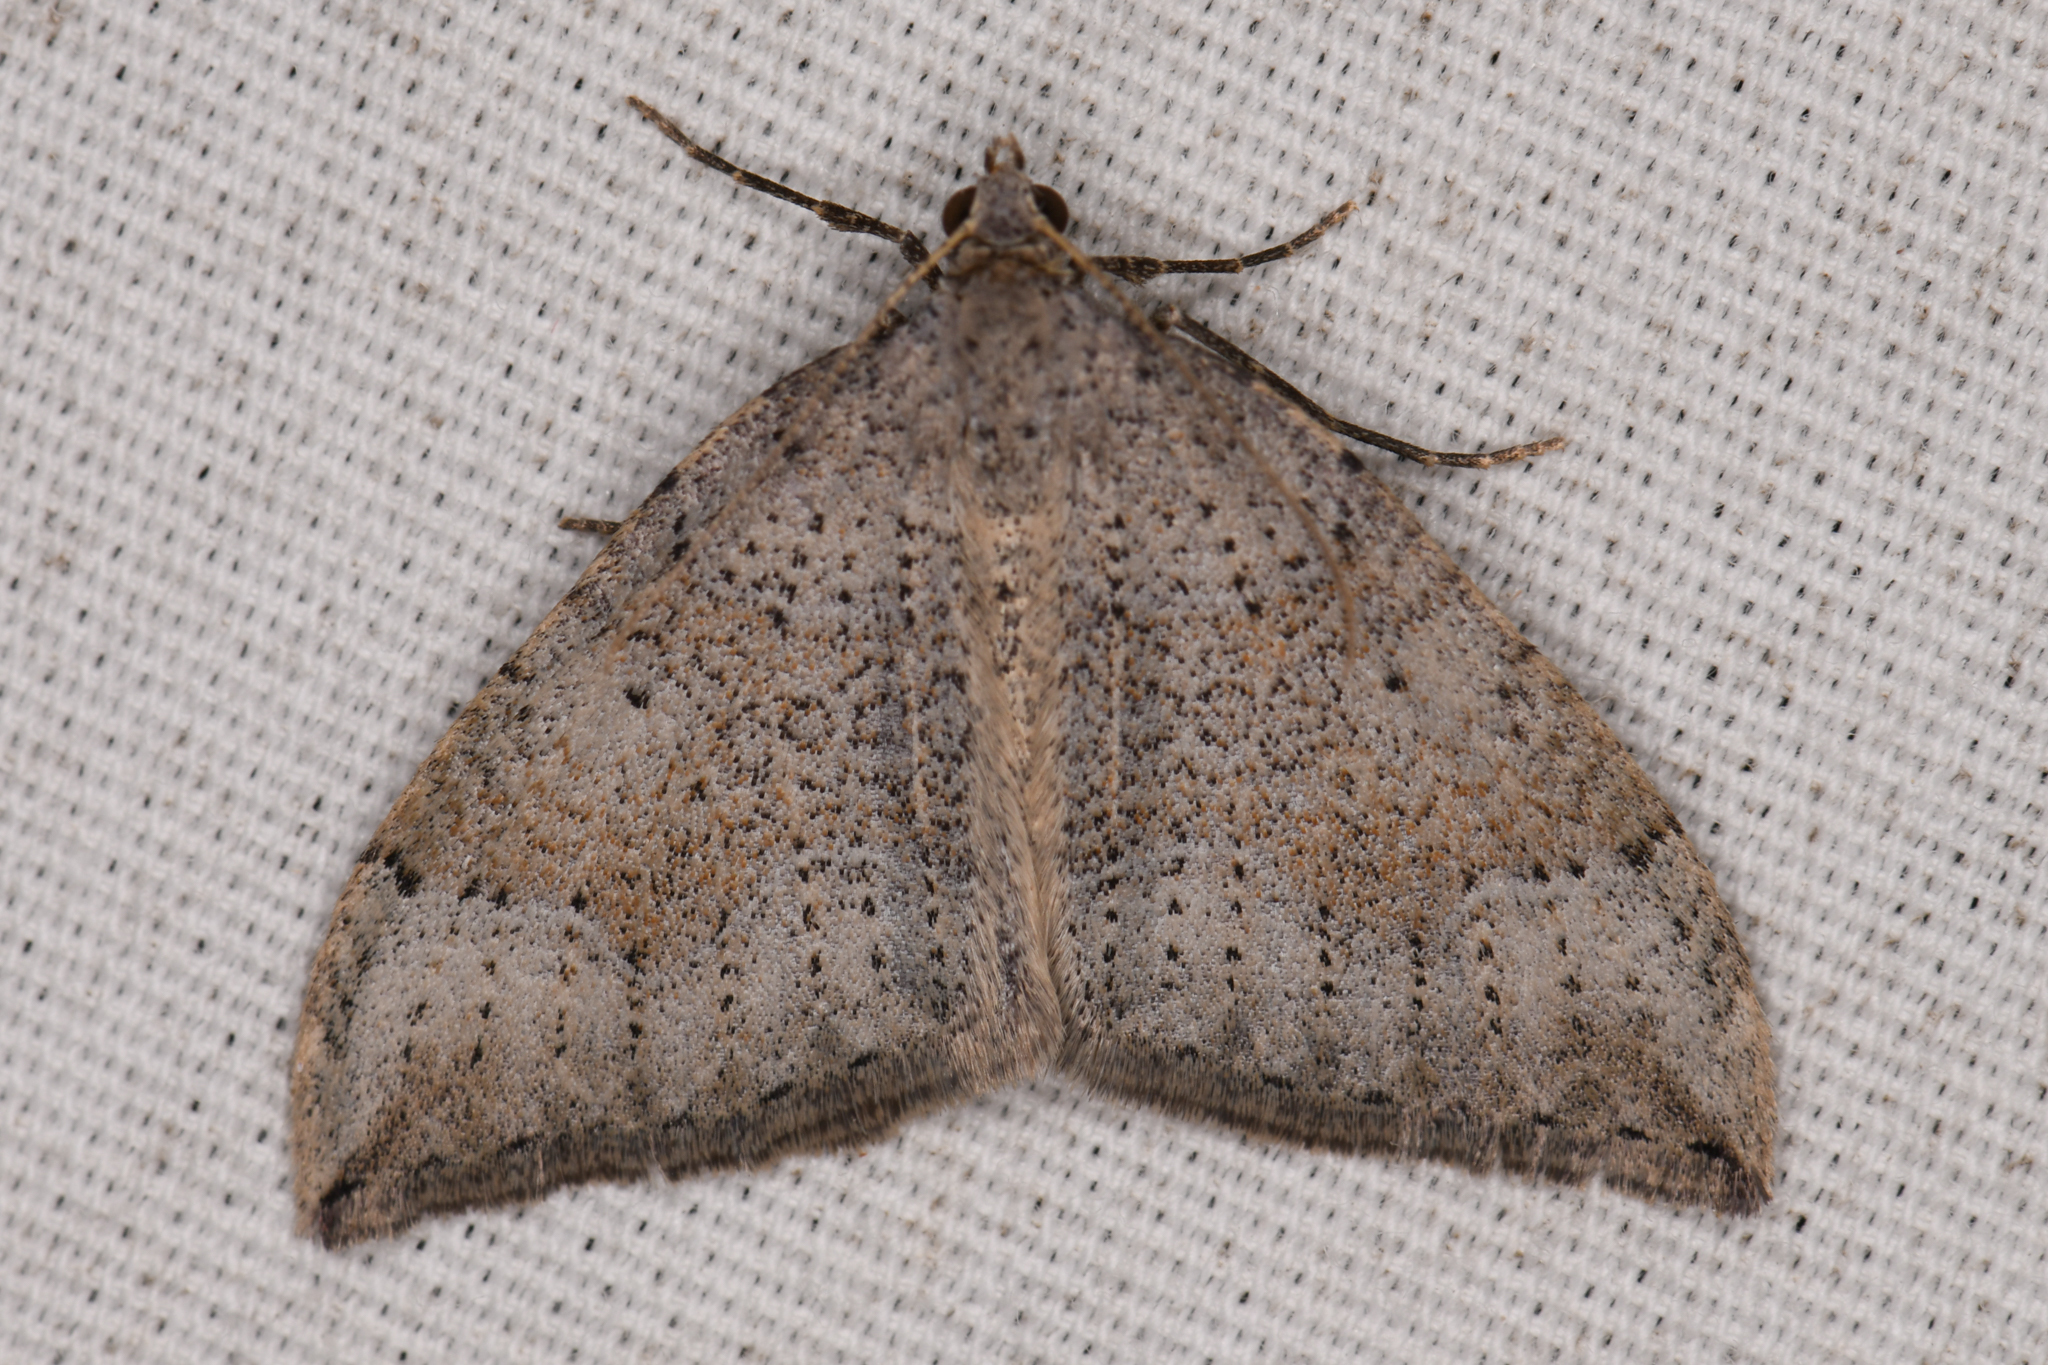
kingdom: Animalia
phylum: Arthropoda
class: Insecta
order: Lepidoptera
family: Geometridae
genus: Zenophleps
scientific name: Zenophleps lignicolorata
